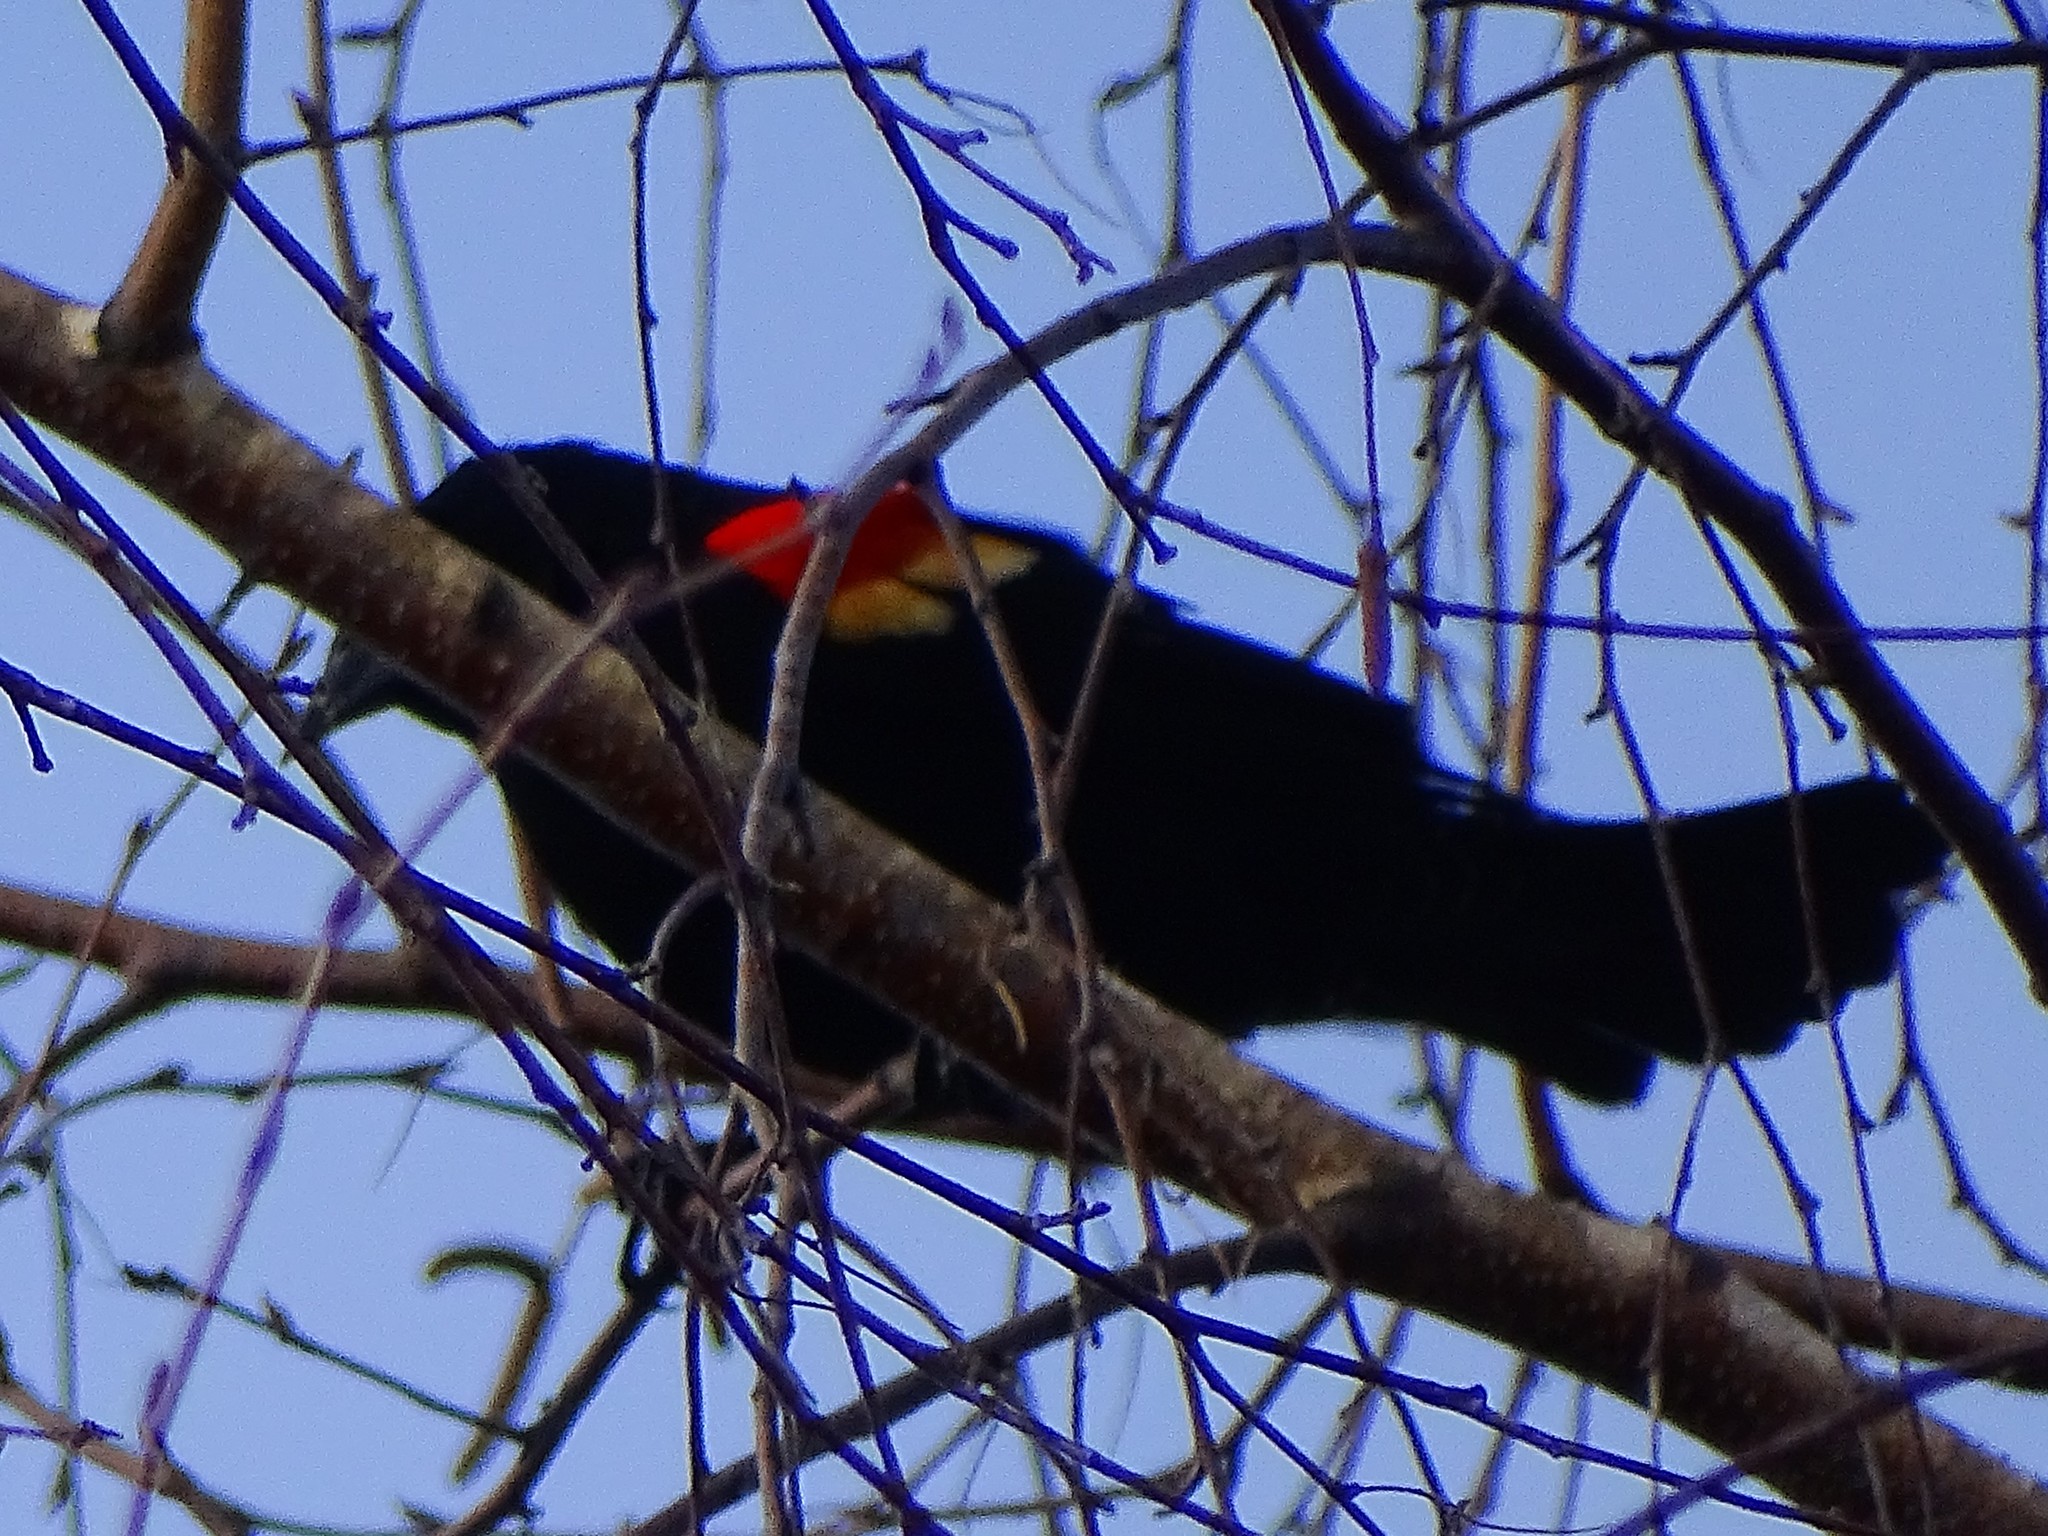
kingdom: Animalia
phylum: Chordata
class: Aves
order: Passeriformes
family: Icteridae
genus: Agelaius
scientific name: Agelaius phoeniceus
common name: Red-winged blackbird
